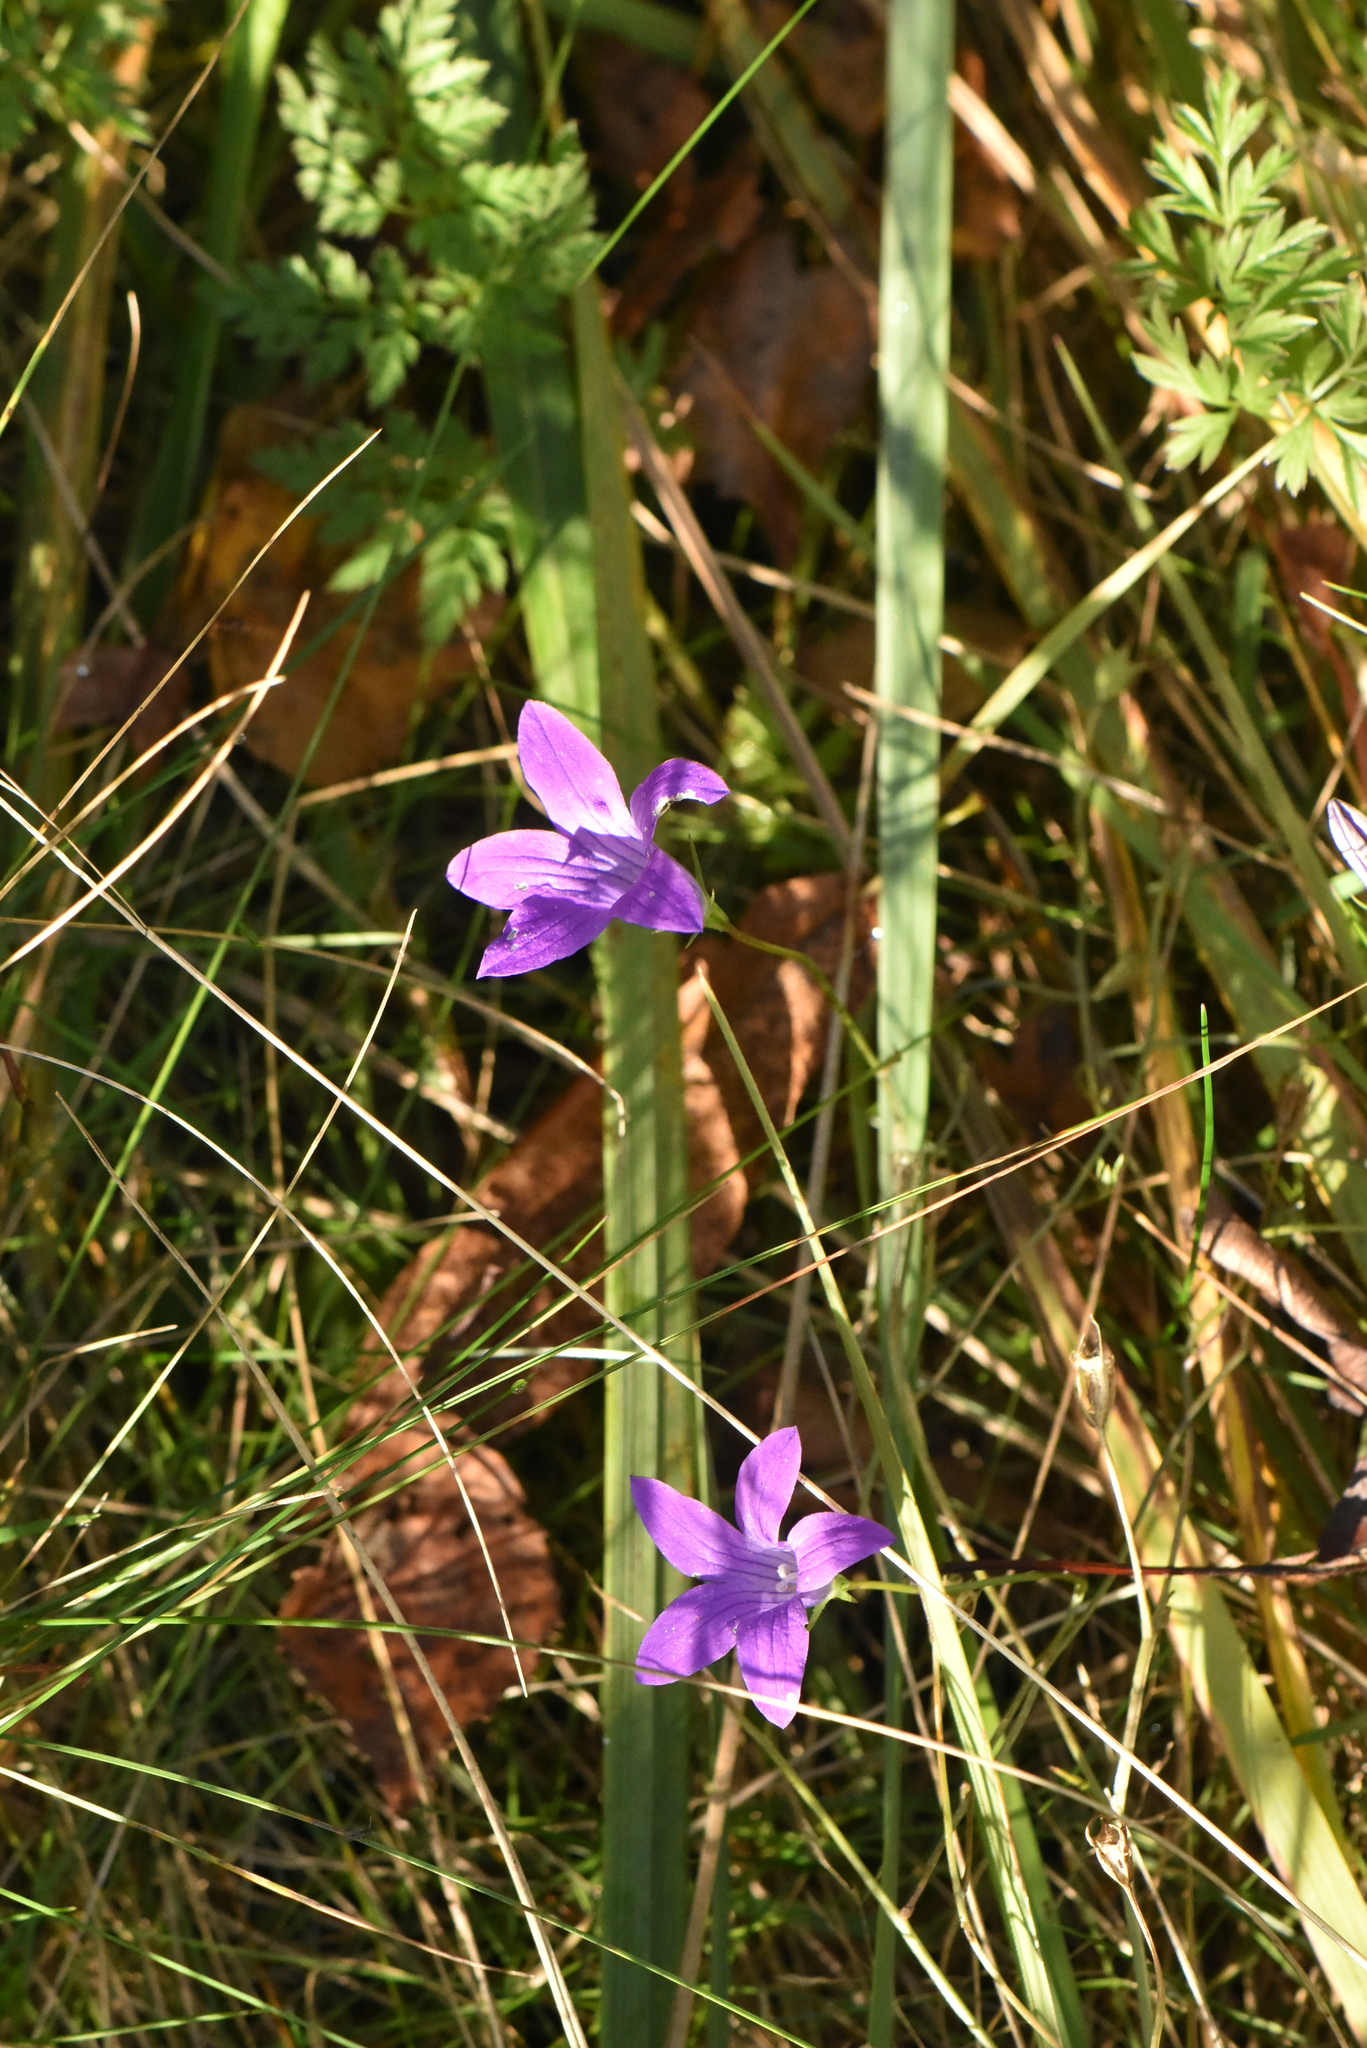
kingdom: Plantae
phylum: Tracheophyta
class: Magnoliopsida
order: Asterales
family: Campanulaceae
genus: Campanula
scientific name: Campanula patula
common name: Spreading bellflower
